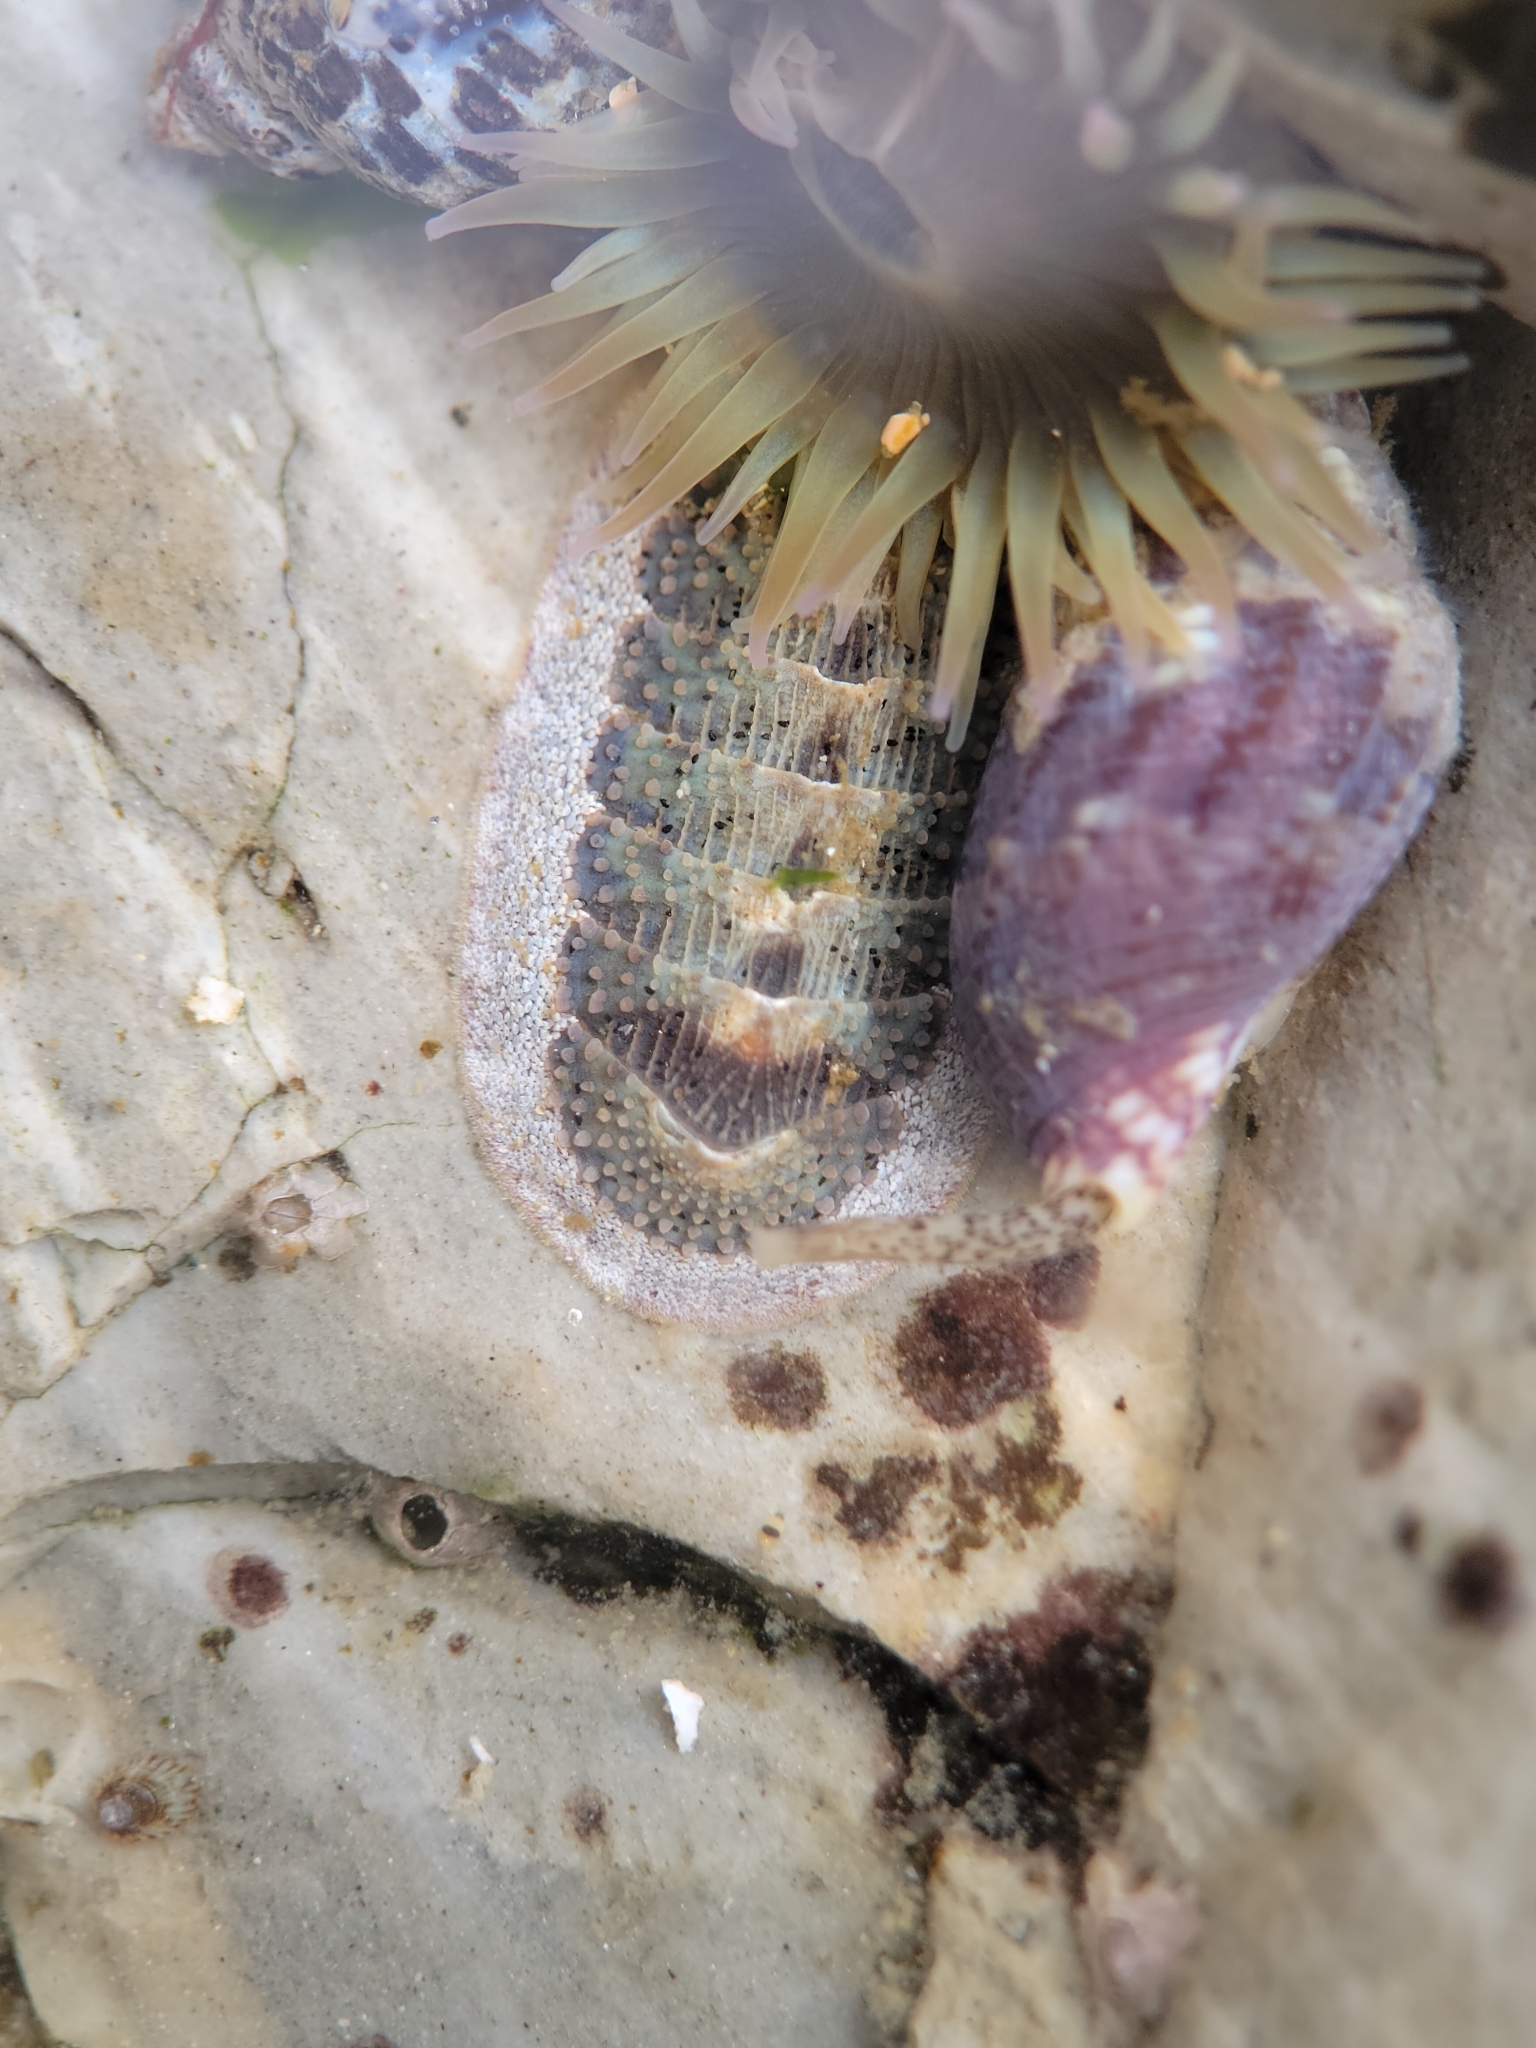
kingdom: Animalia
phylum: Mollusca
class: Polyplacophora
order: Chitonida
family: Ischnochitonidae
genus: Lepidozona
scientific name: Lepidozona cooperi
